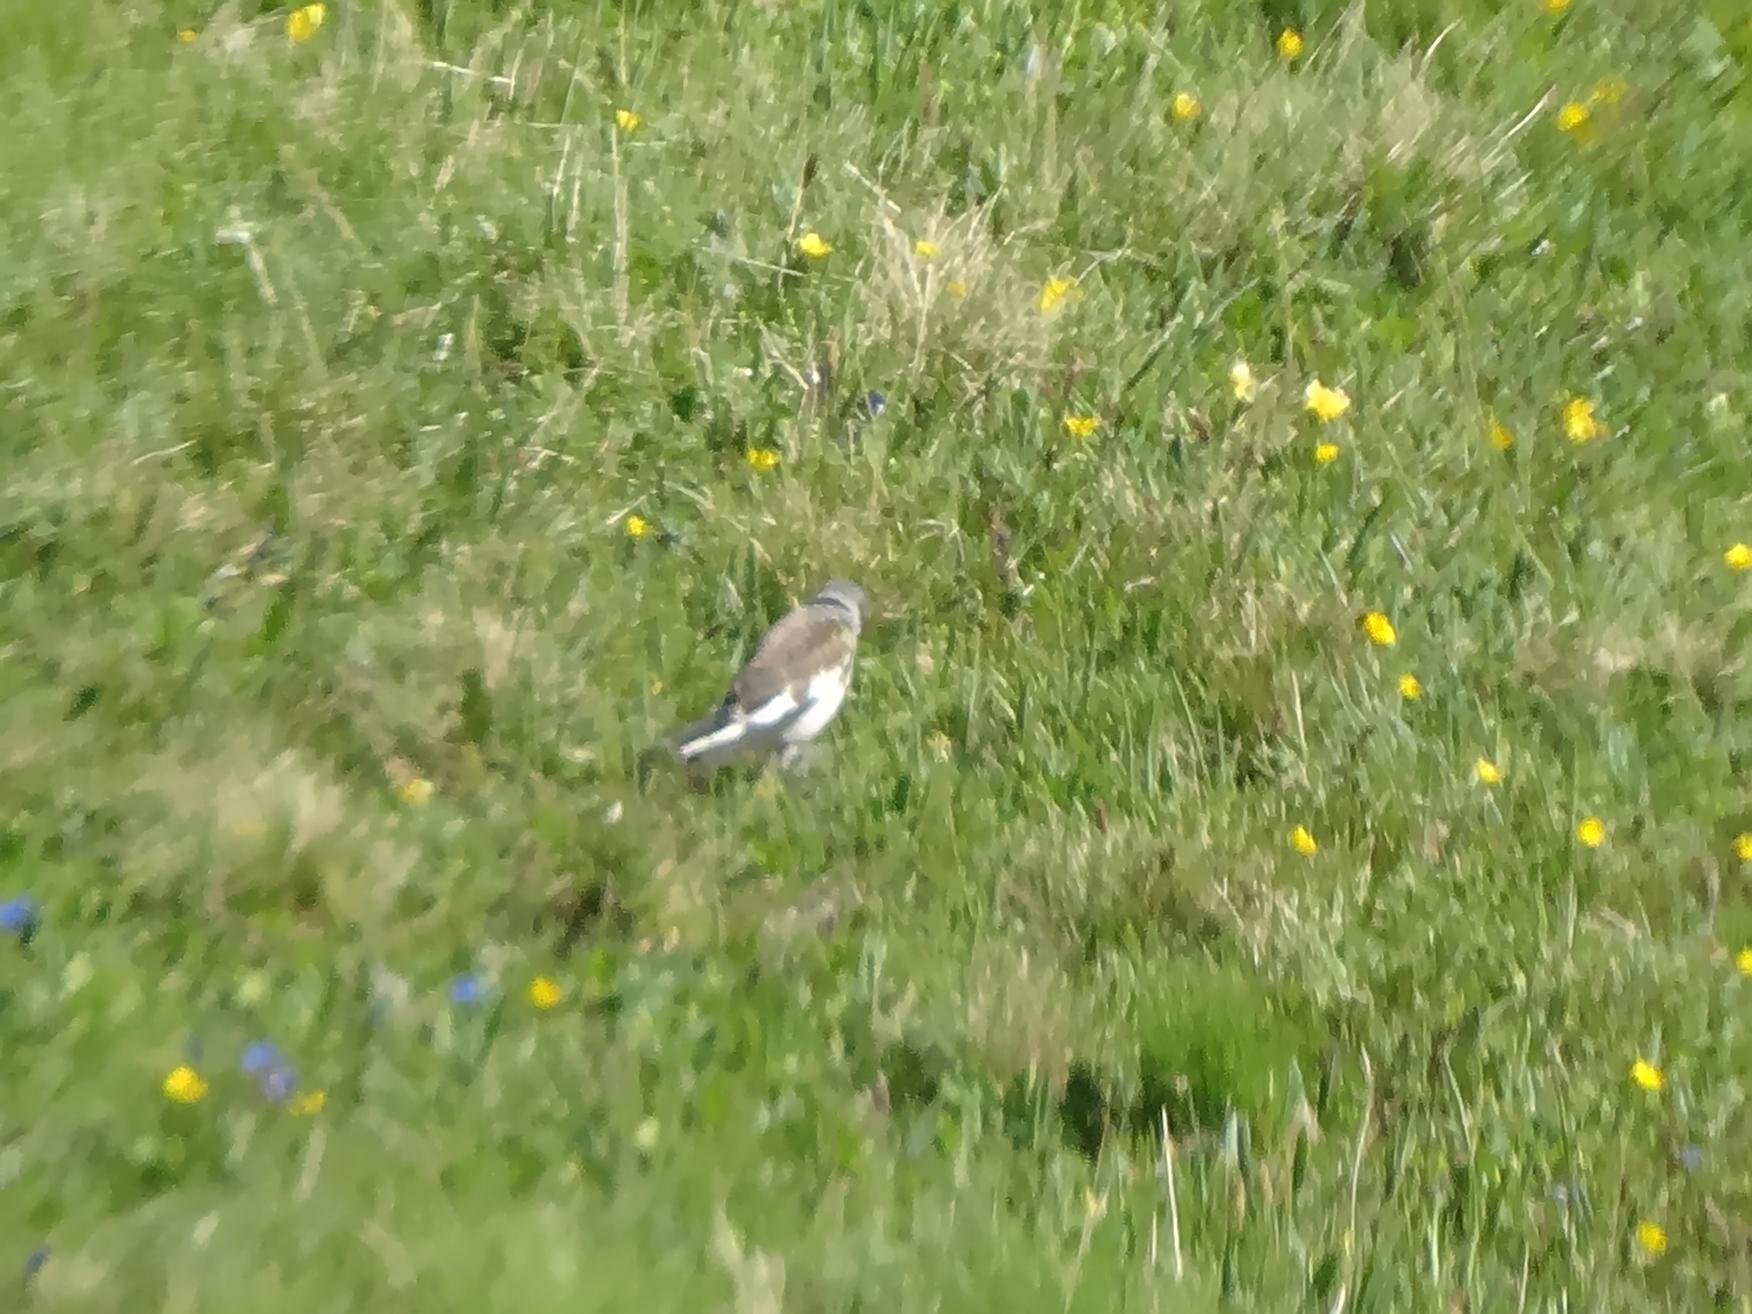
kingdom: Animalia
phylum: Chordata
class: Aves
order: Passeriformes
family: Passeridae
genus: Montifringilla
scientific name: Montifringilla nivalis
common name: White-winged snowfinch
